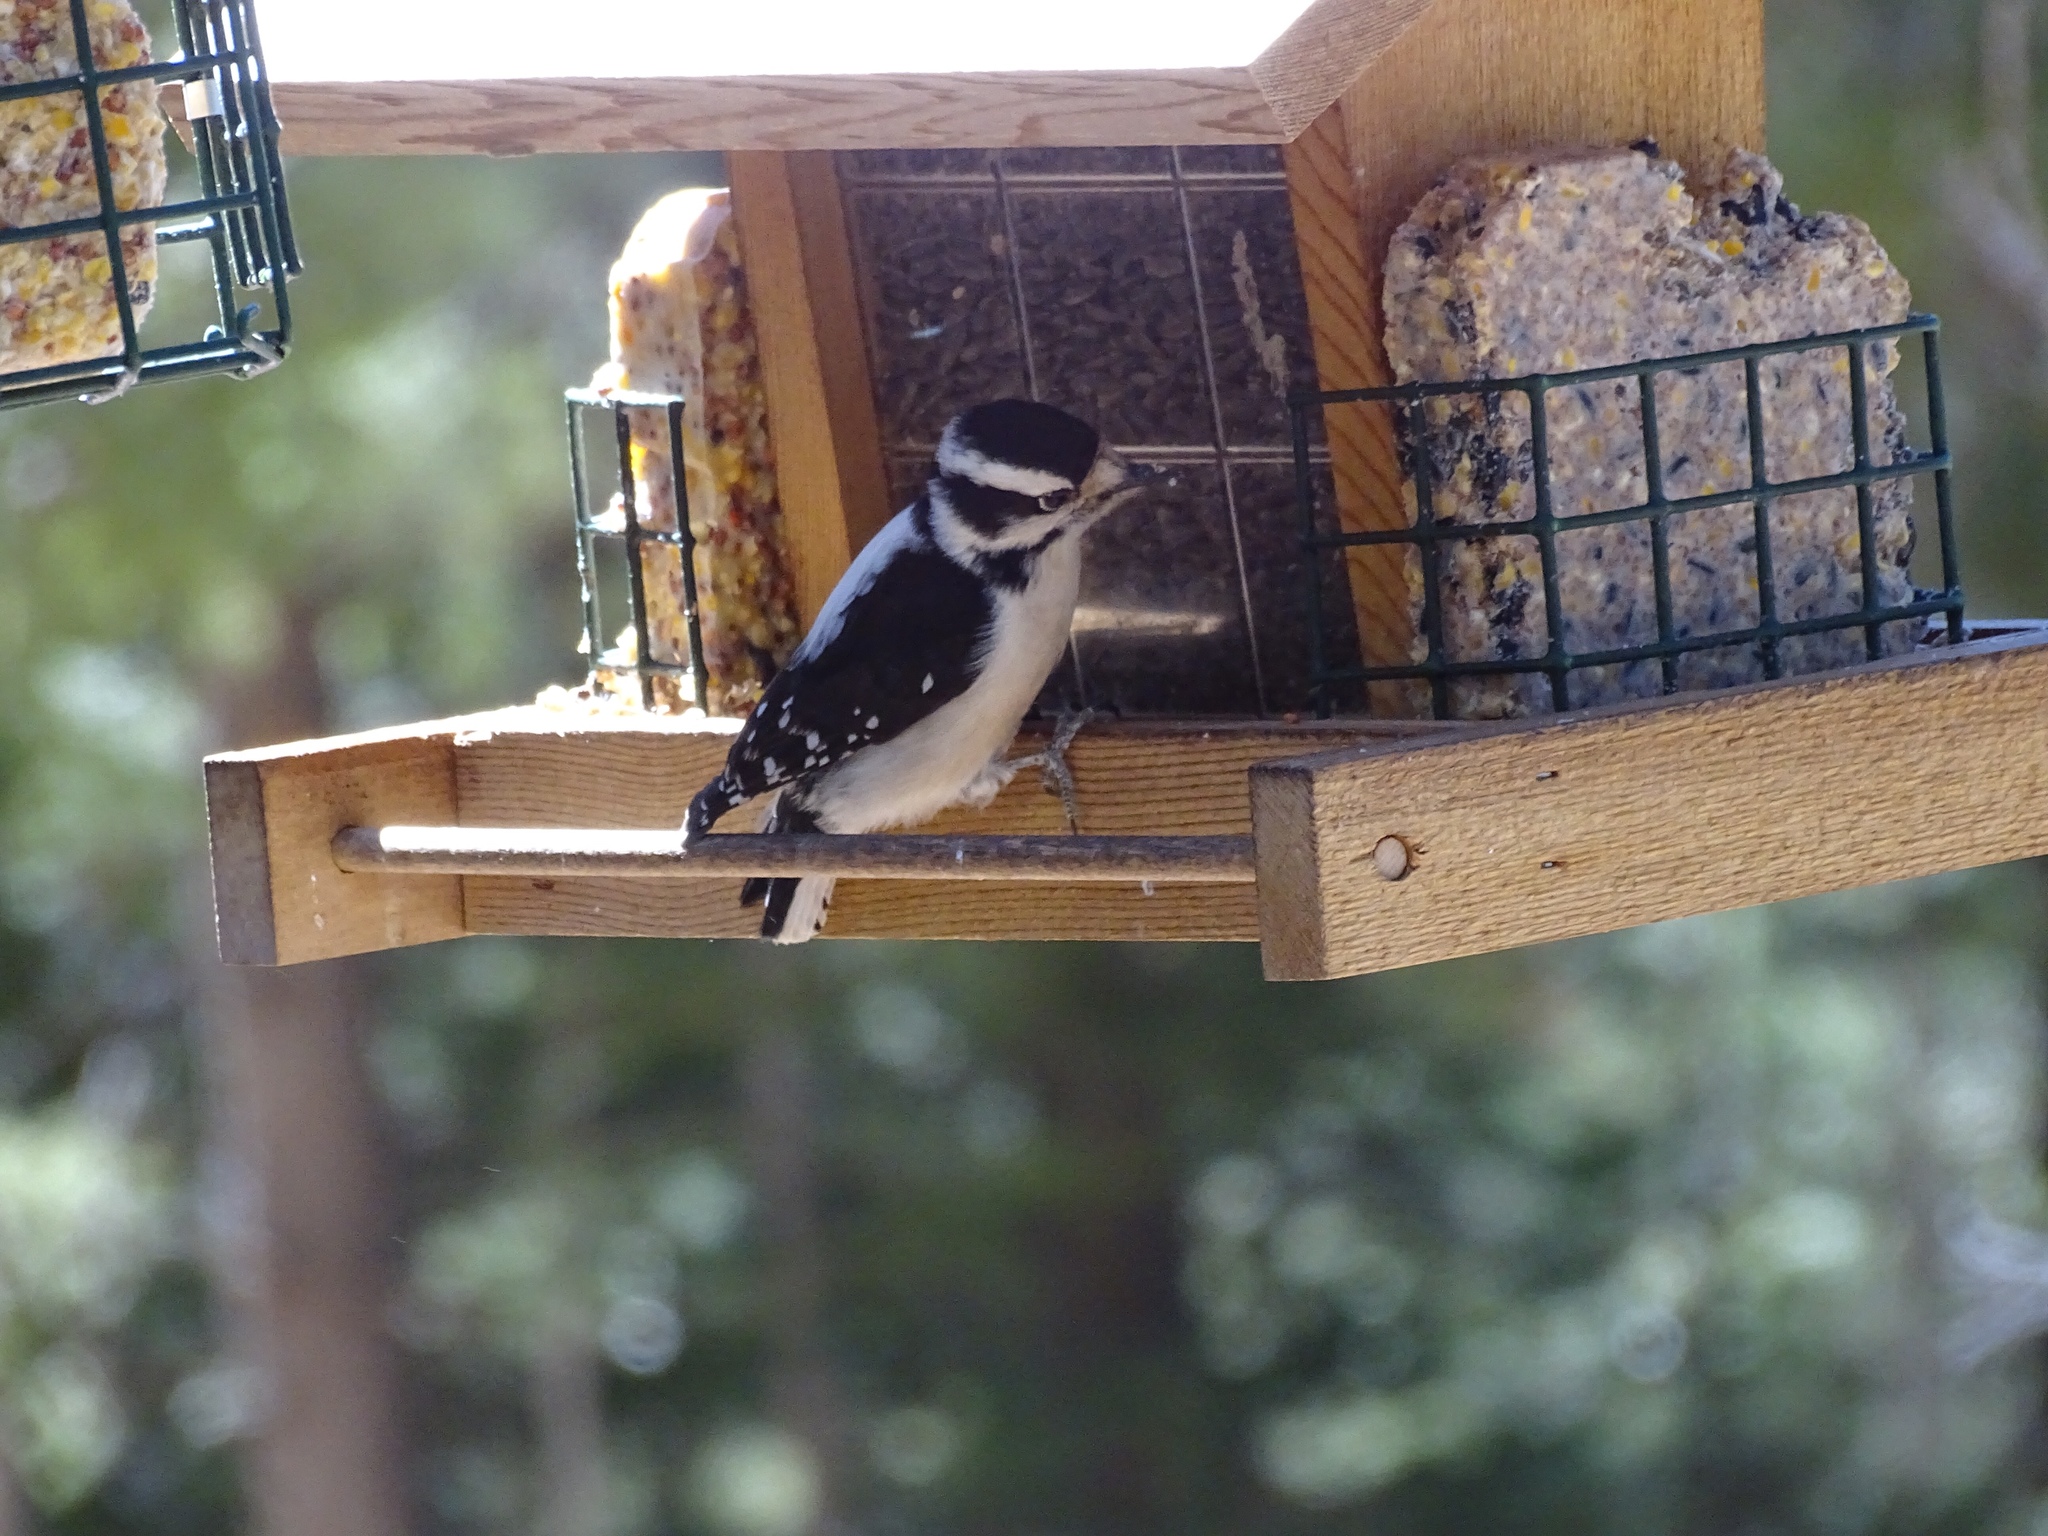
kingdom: Animalia
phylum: Chordata
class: Aves
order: Piciformes
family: Picidae
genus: Dryobates
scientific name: Dryobates pubescens
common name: Downy woodpecker
